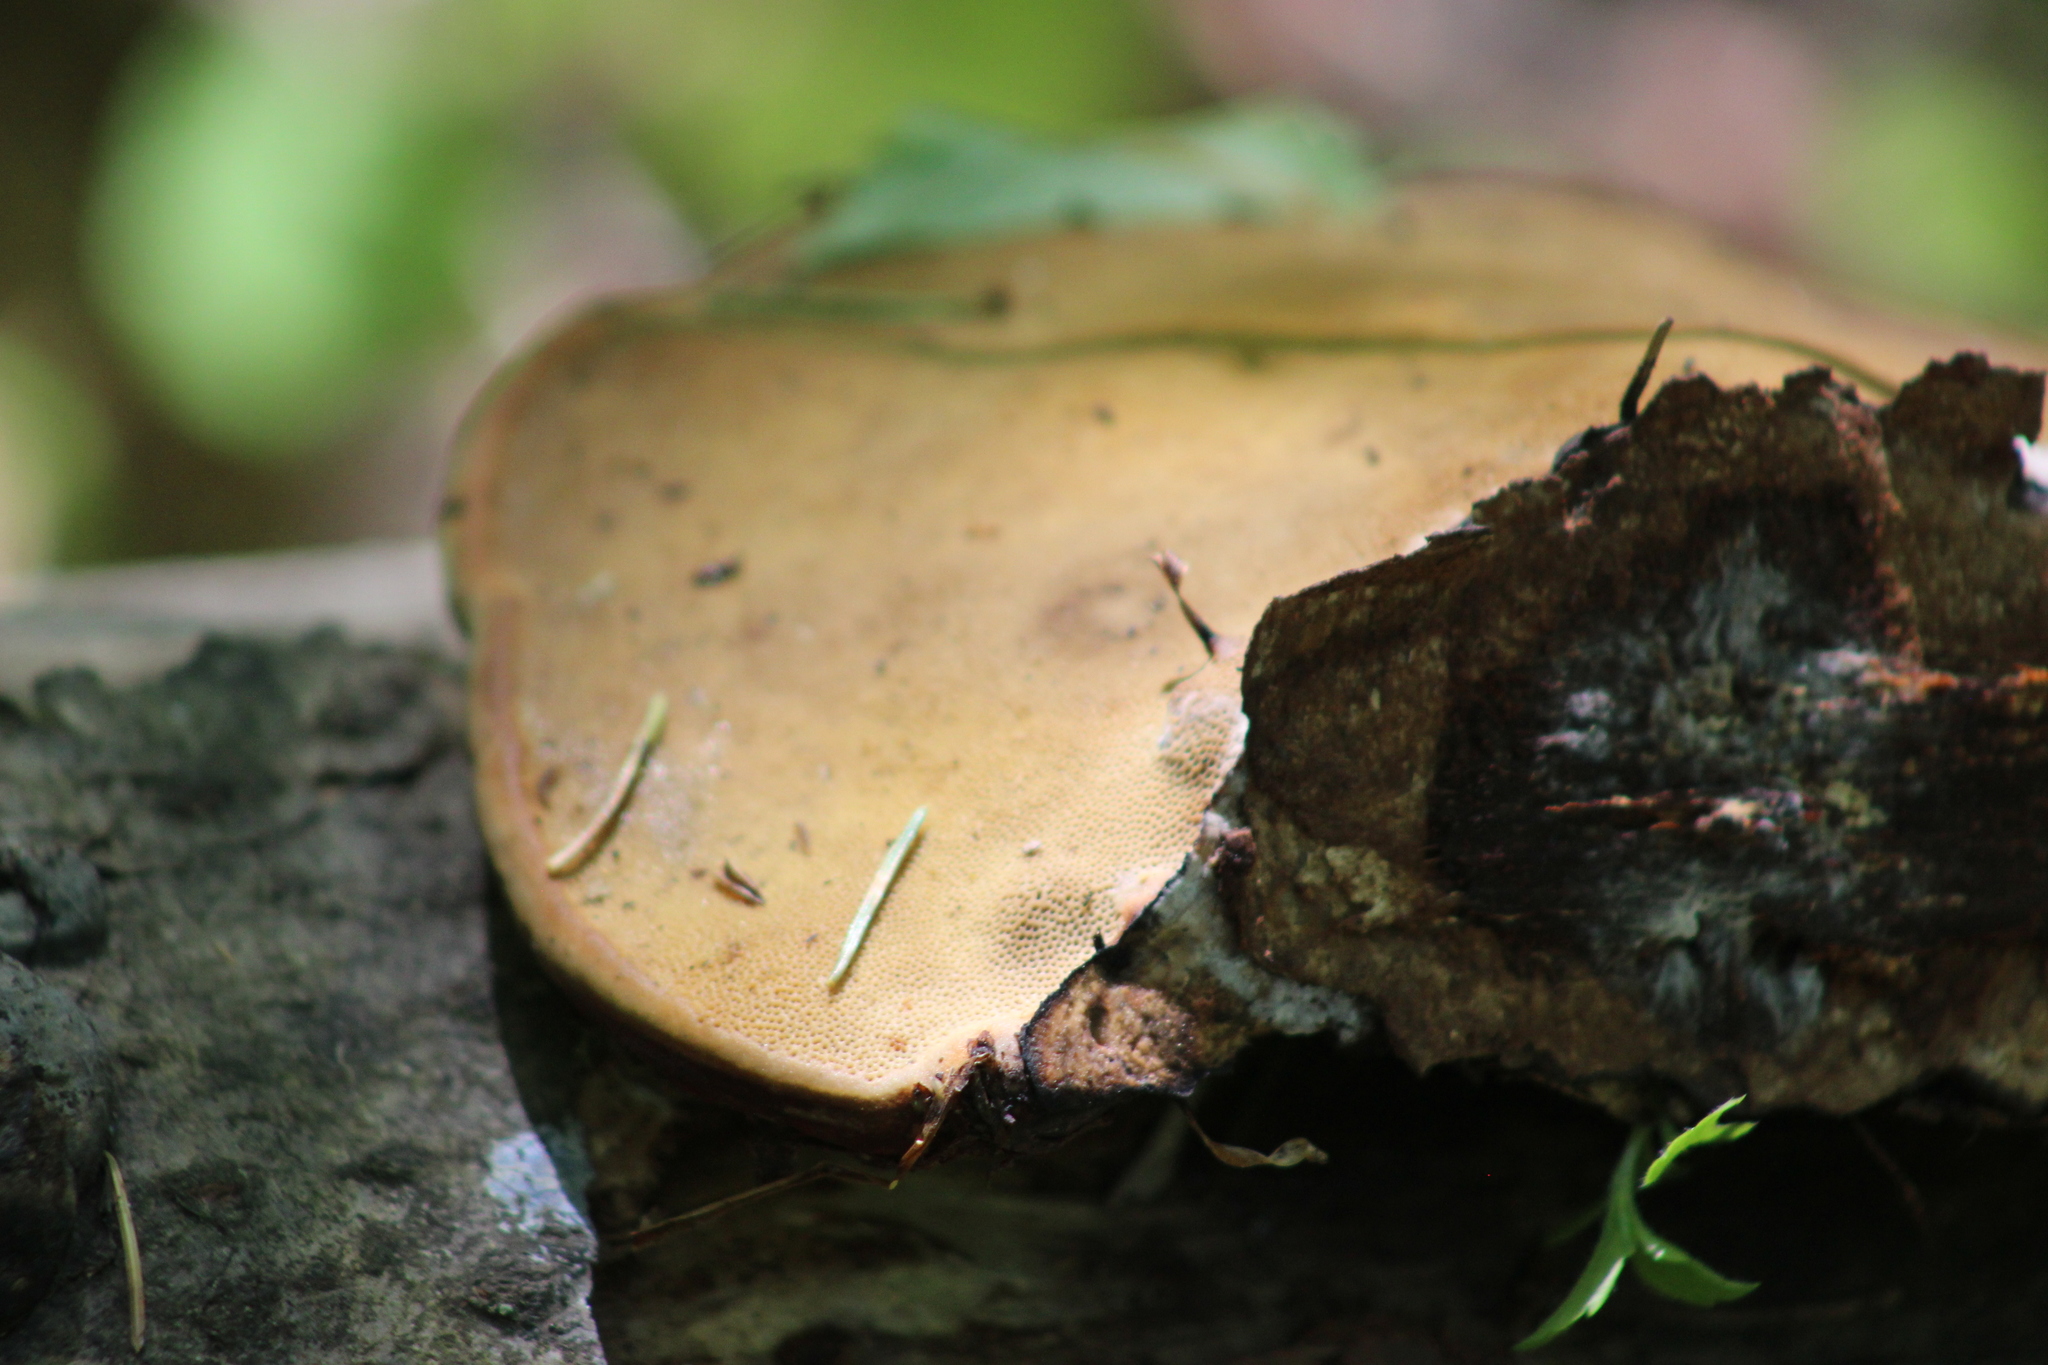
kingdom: Fungi
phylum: Basidiomycota
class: Agaricomycetes
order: Polyporales
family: Fomitopsidaceae
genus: Fomitopsis
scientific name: Fomitopsis pinicola
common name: Red-belted bracket
